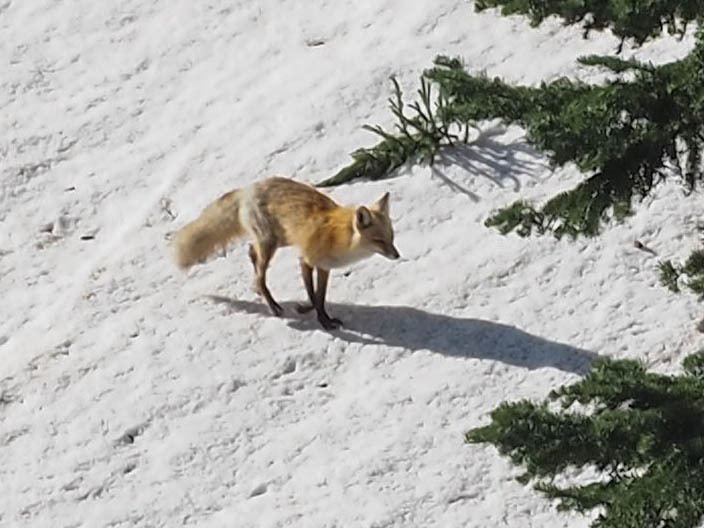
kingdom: Animalia
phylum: Chordata
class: Mammalia
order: Carnivora
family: Canidae
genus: Vulpes
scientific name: Vulpes vulpes
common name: Red fox
